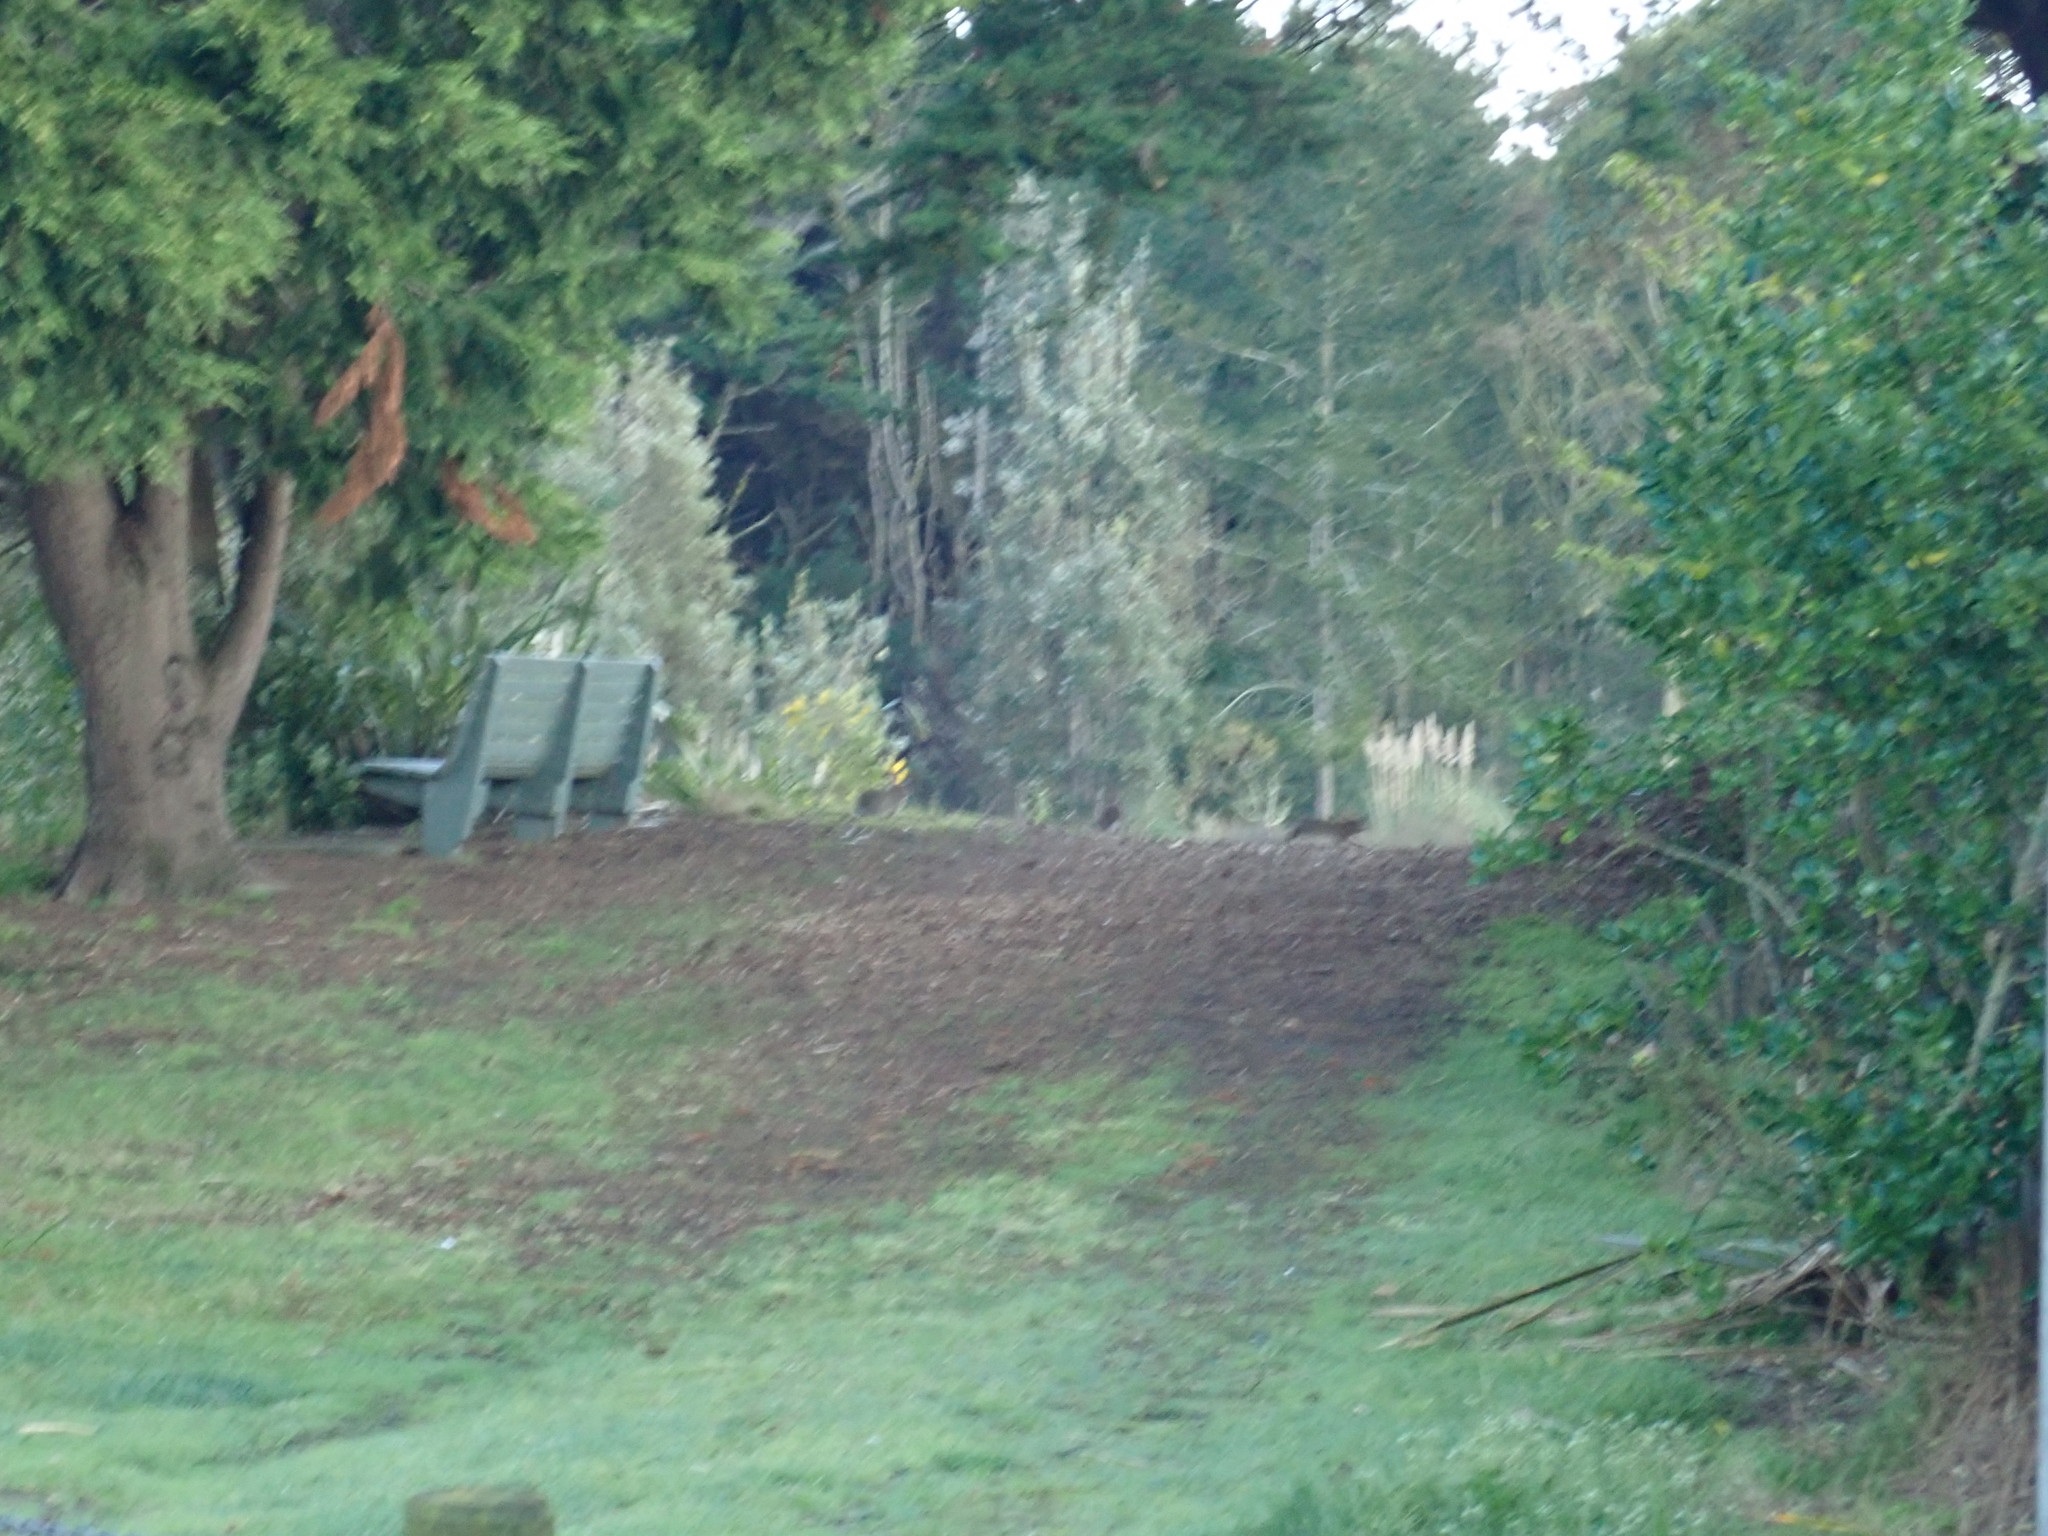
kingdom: Animalia
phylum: Chordata
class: Mammalia
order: Lagomorpha
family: Leporidae
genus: Oryctolagus
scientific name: Oryctolagus cuniculus
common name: European rabbit
